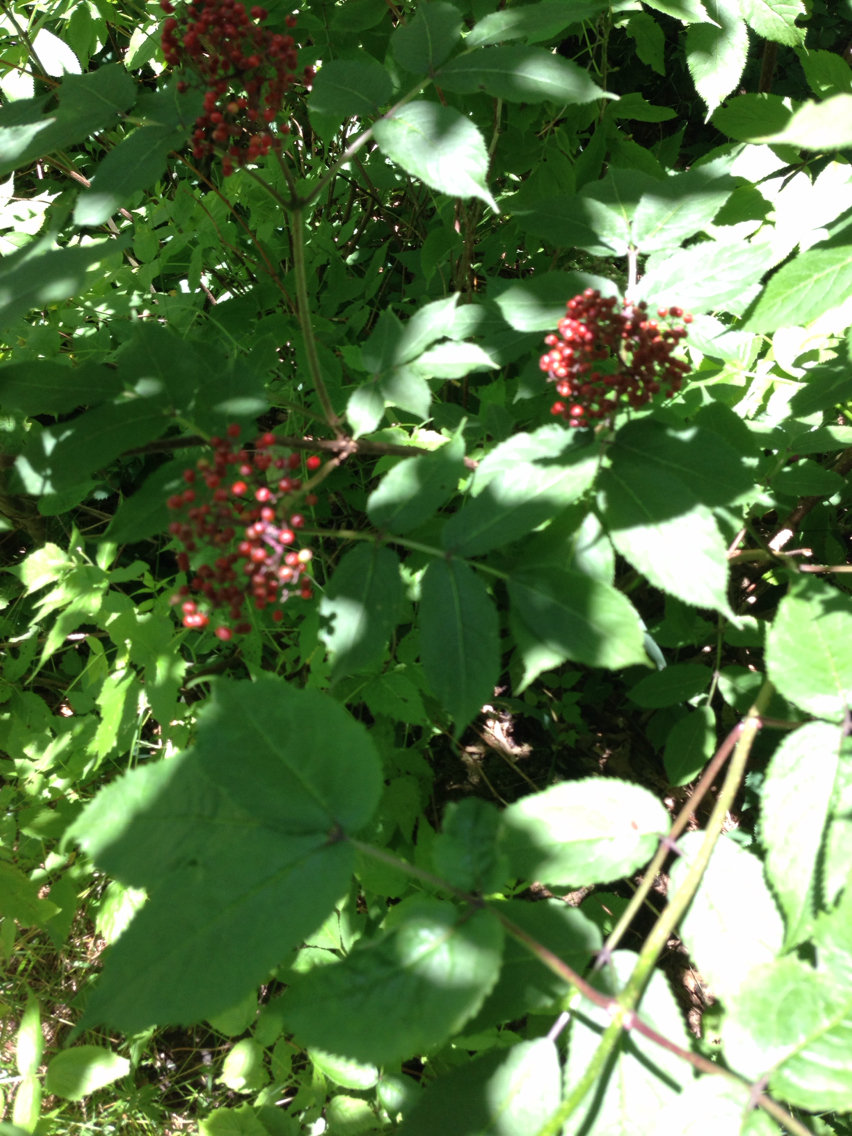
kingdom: Plantae
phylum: Tracheophyta
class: Magnoliopsida
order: Dipsacales
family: Viburnaceae
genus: Sambucus
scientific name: Sambucus racemosa
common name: Red-berried elder
